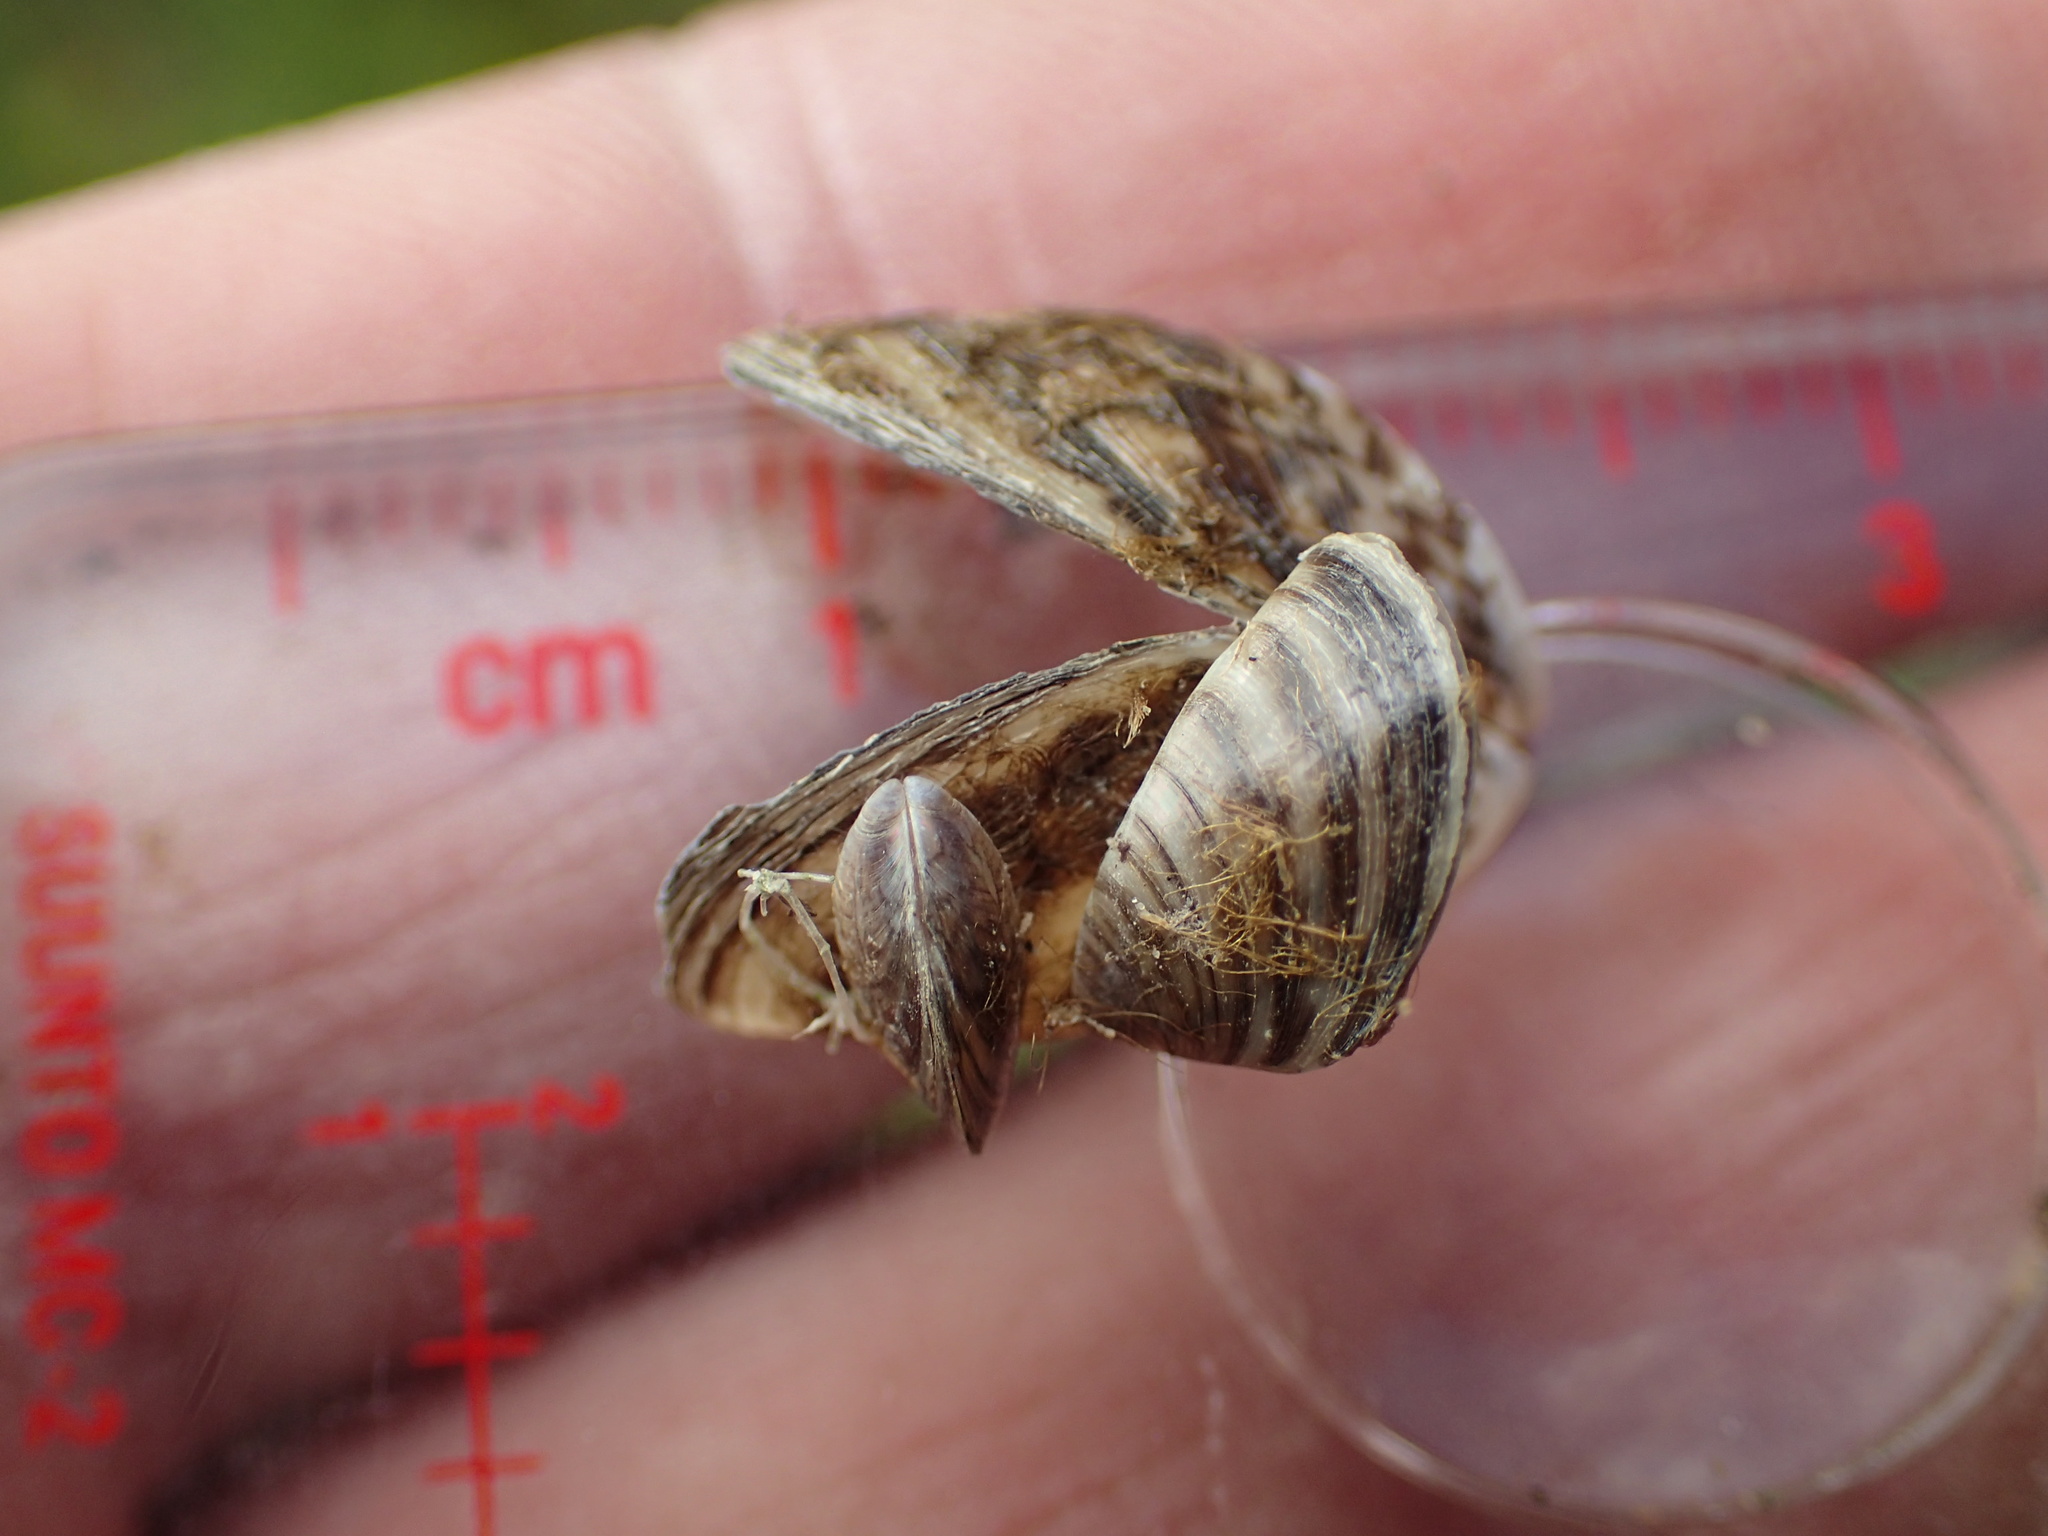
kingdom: Animalia
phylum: Mollusca
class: Bivalvia
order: Myida
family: Dreissenidae
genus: Dreissena
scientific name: Dreissena polymorpha
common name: Zebra mussel
